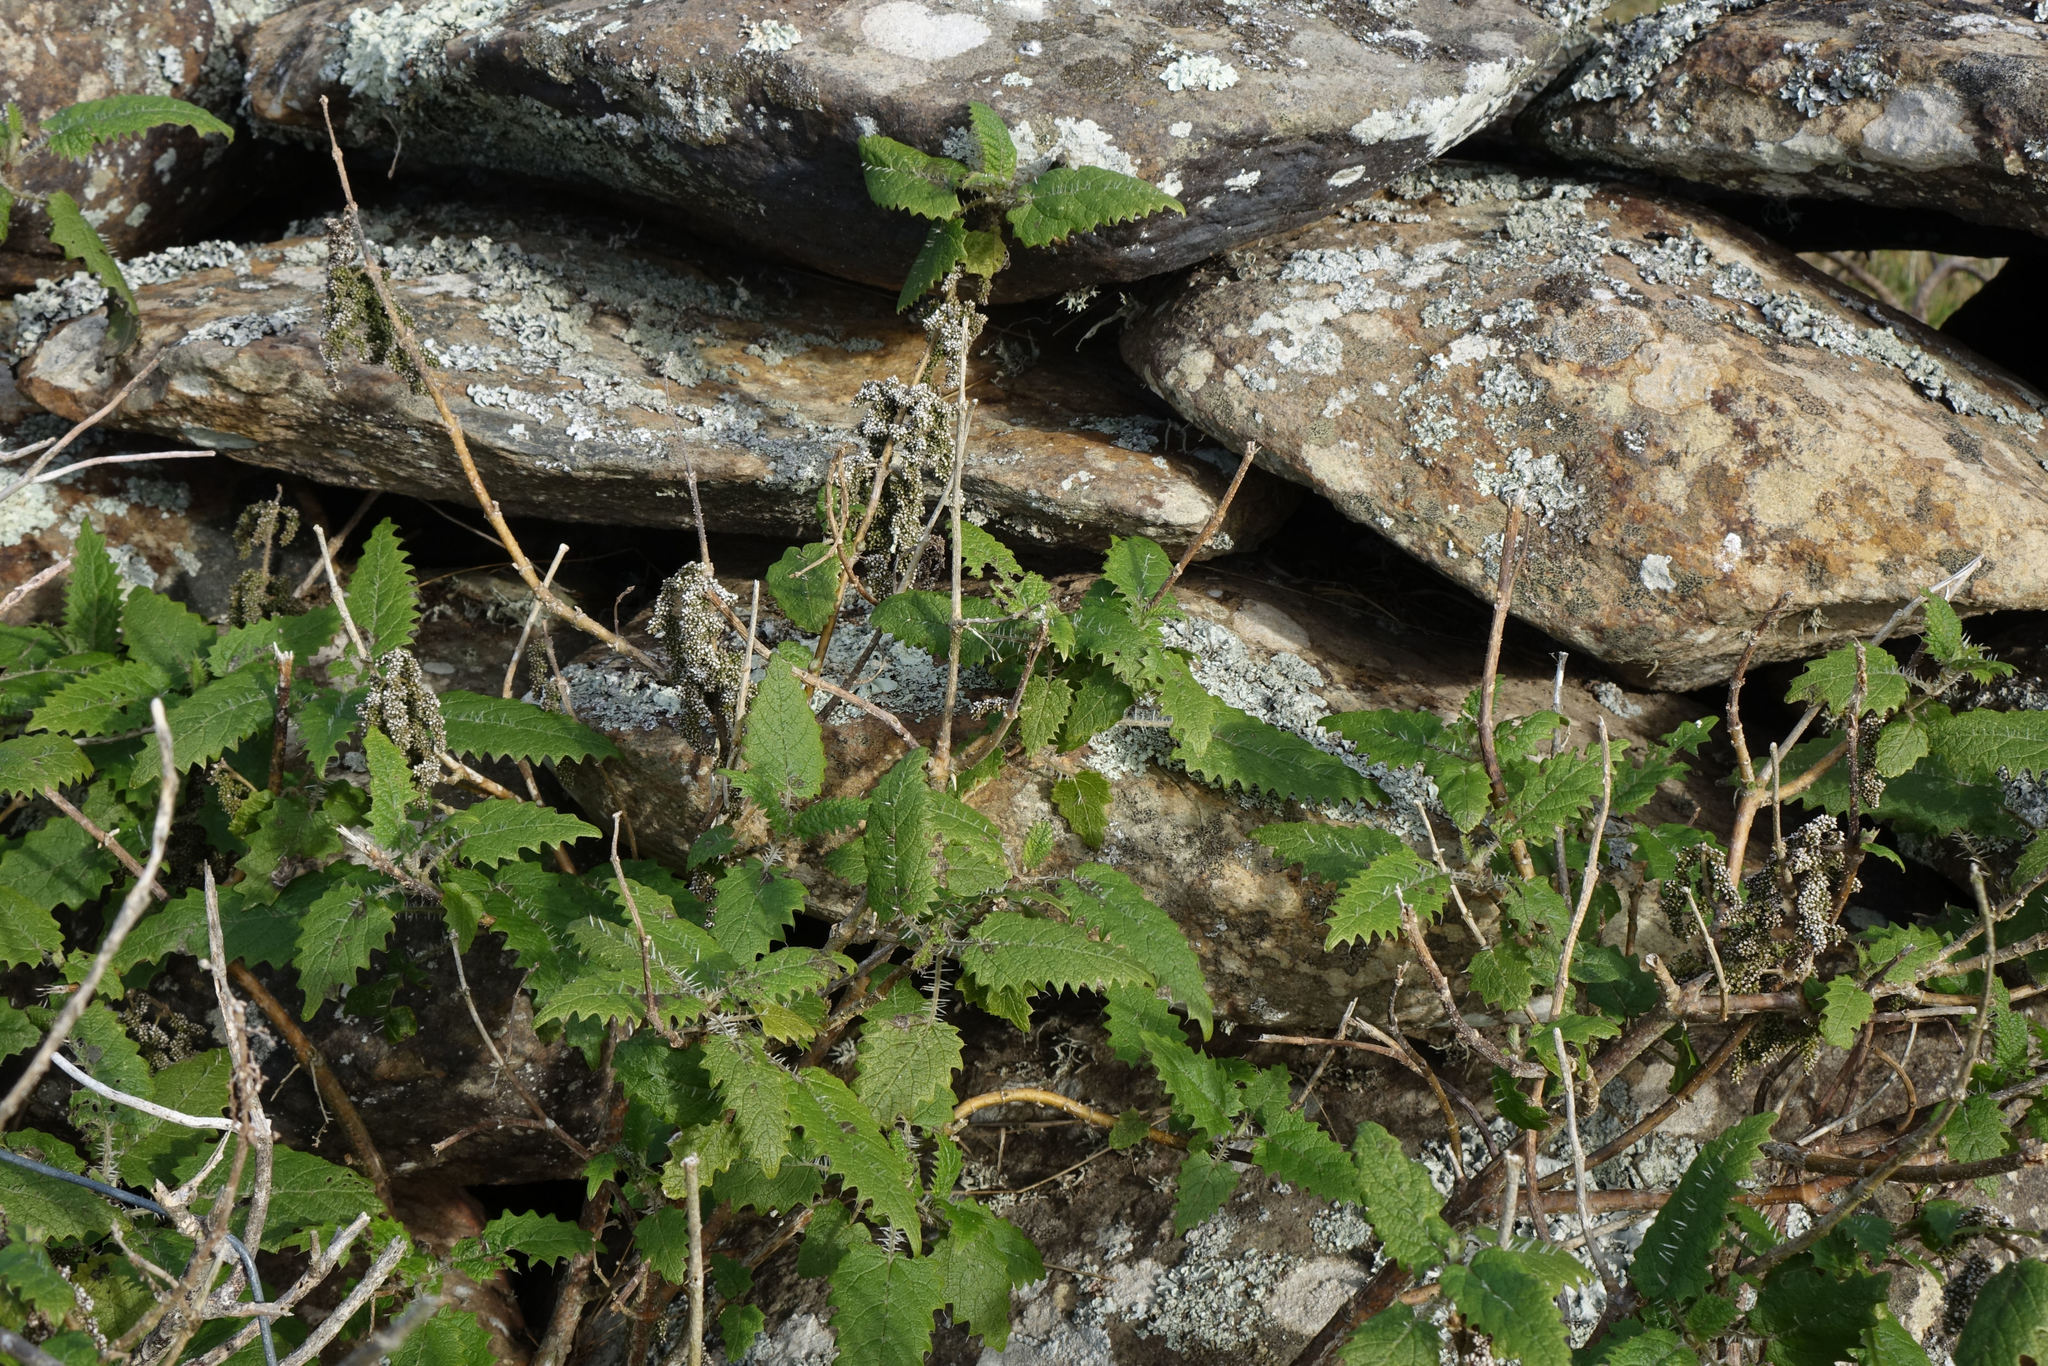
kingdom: Plantae
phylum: Tracheophyta
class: Magnoliopsida
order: Rosales
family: Urticaceae
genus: Urtica
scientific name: Urtica ferox
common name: Tree nettle
